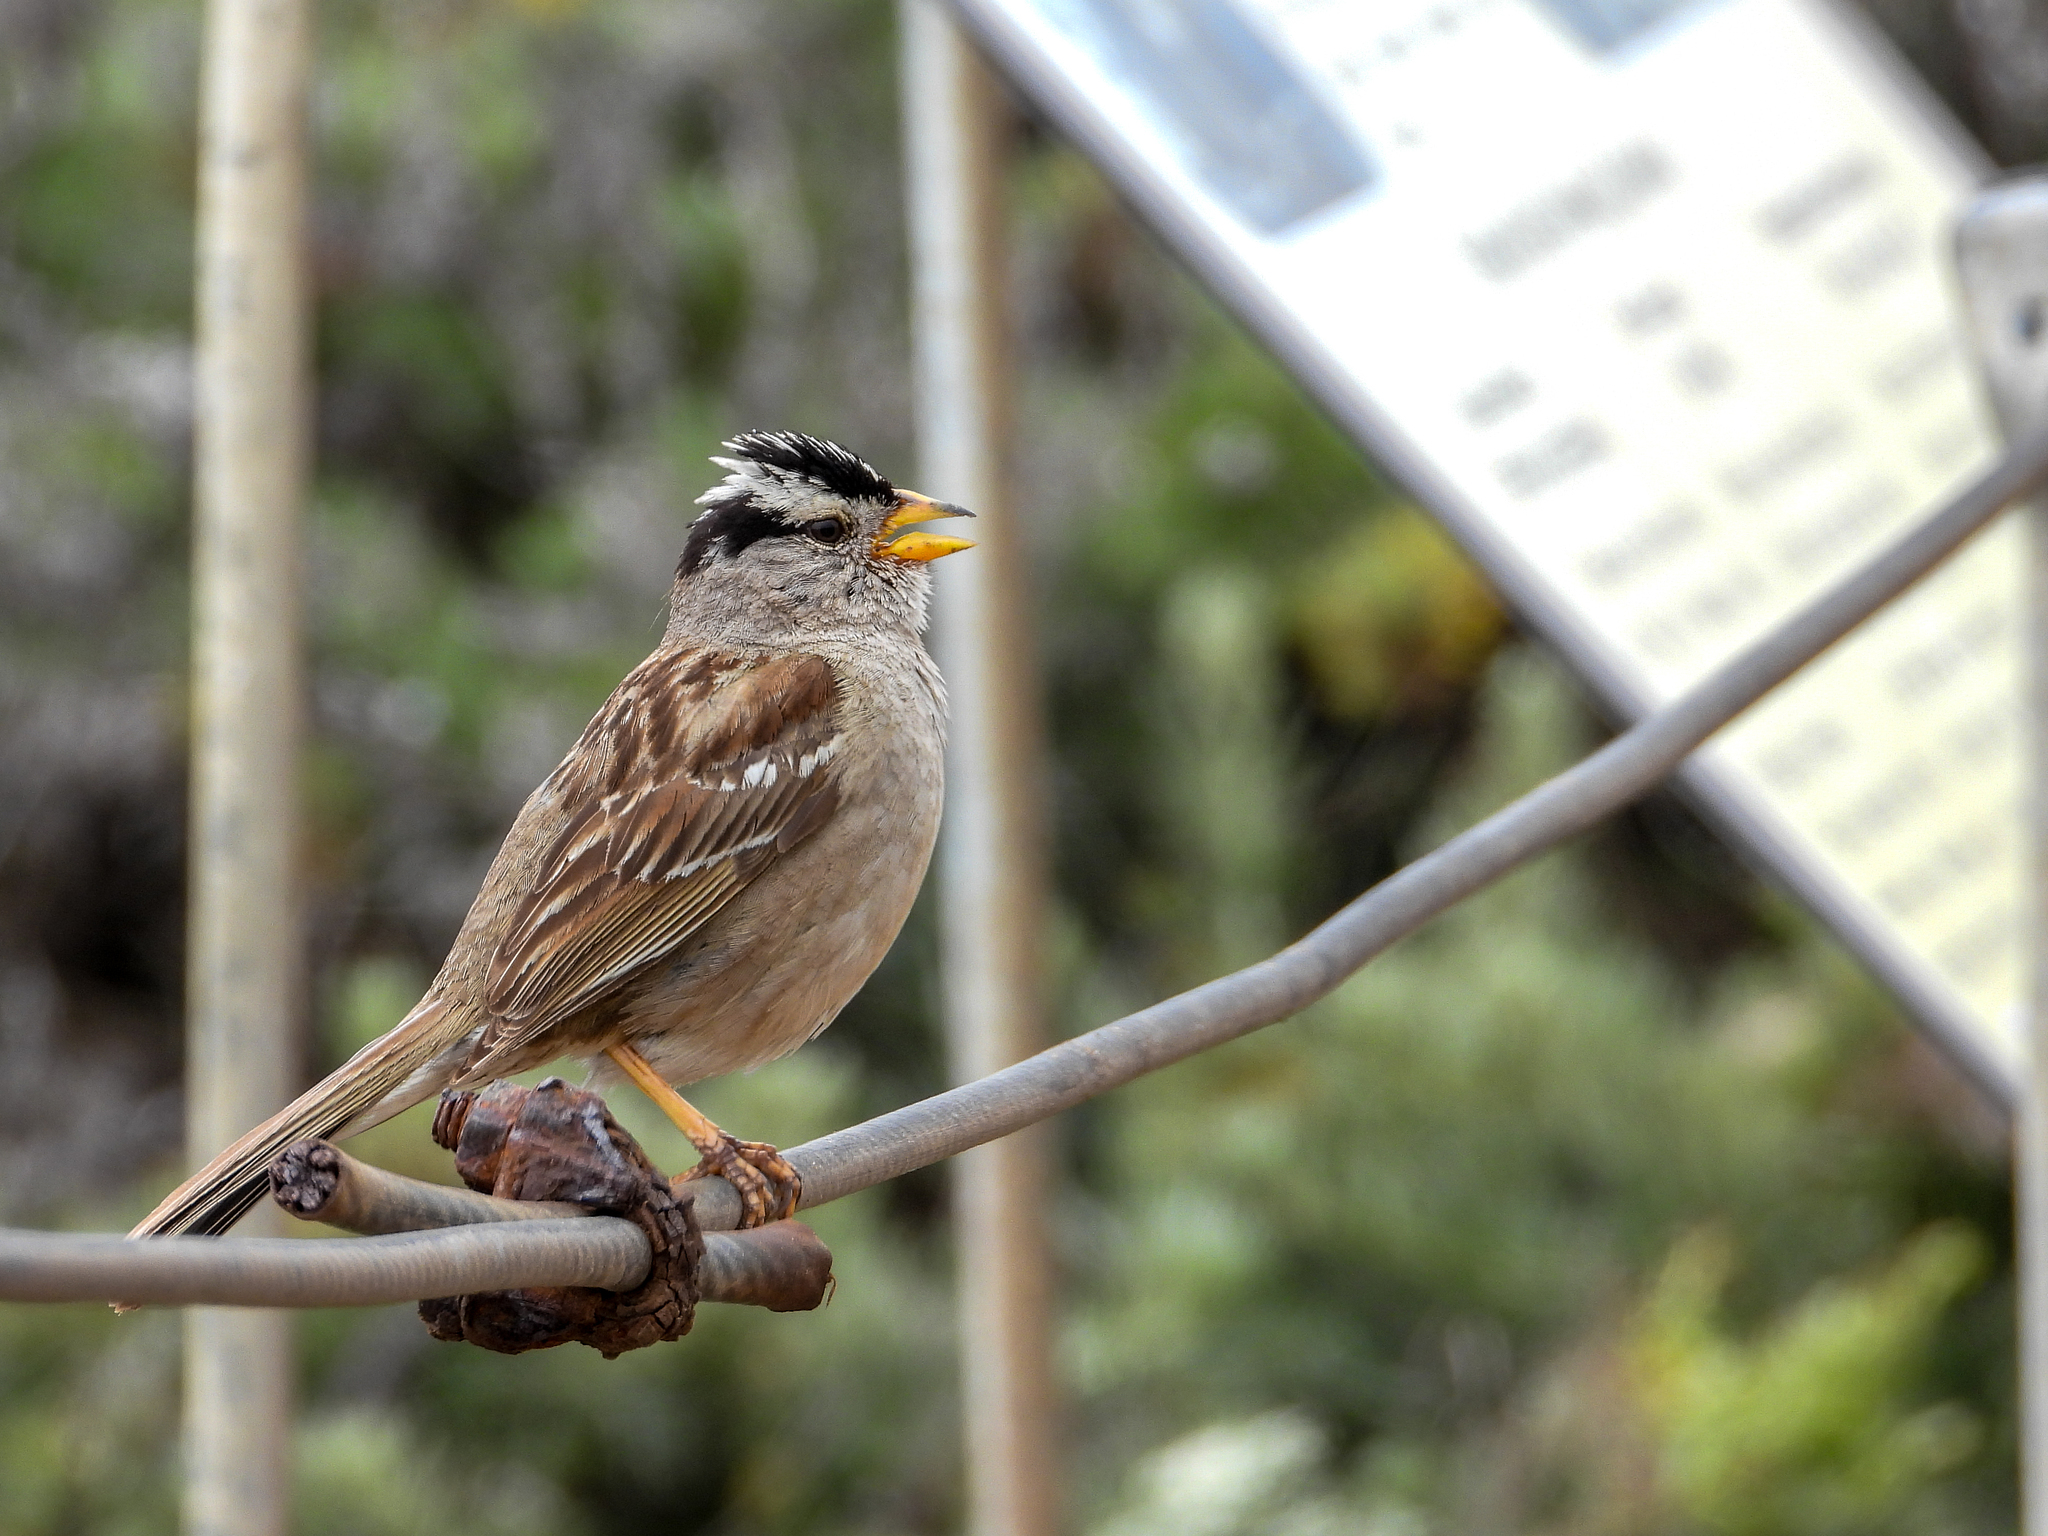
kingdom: Animalia
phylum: Chordata
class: Aves
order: Passeriformes
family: Passerellidae
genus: Zonotrichia
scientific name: Zonotrichia leucophrys
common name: White-crowned sparrow
